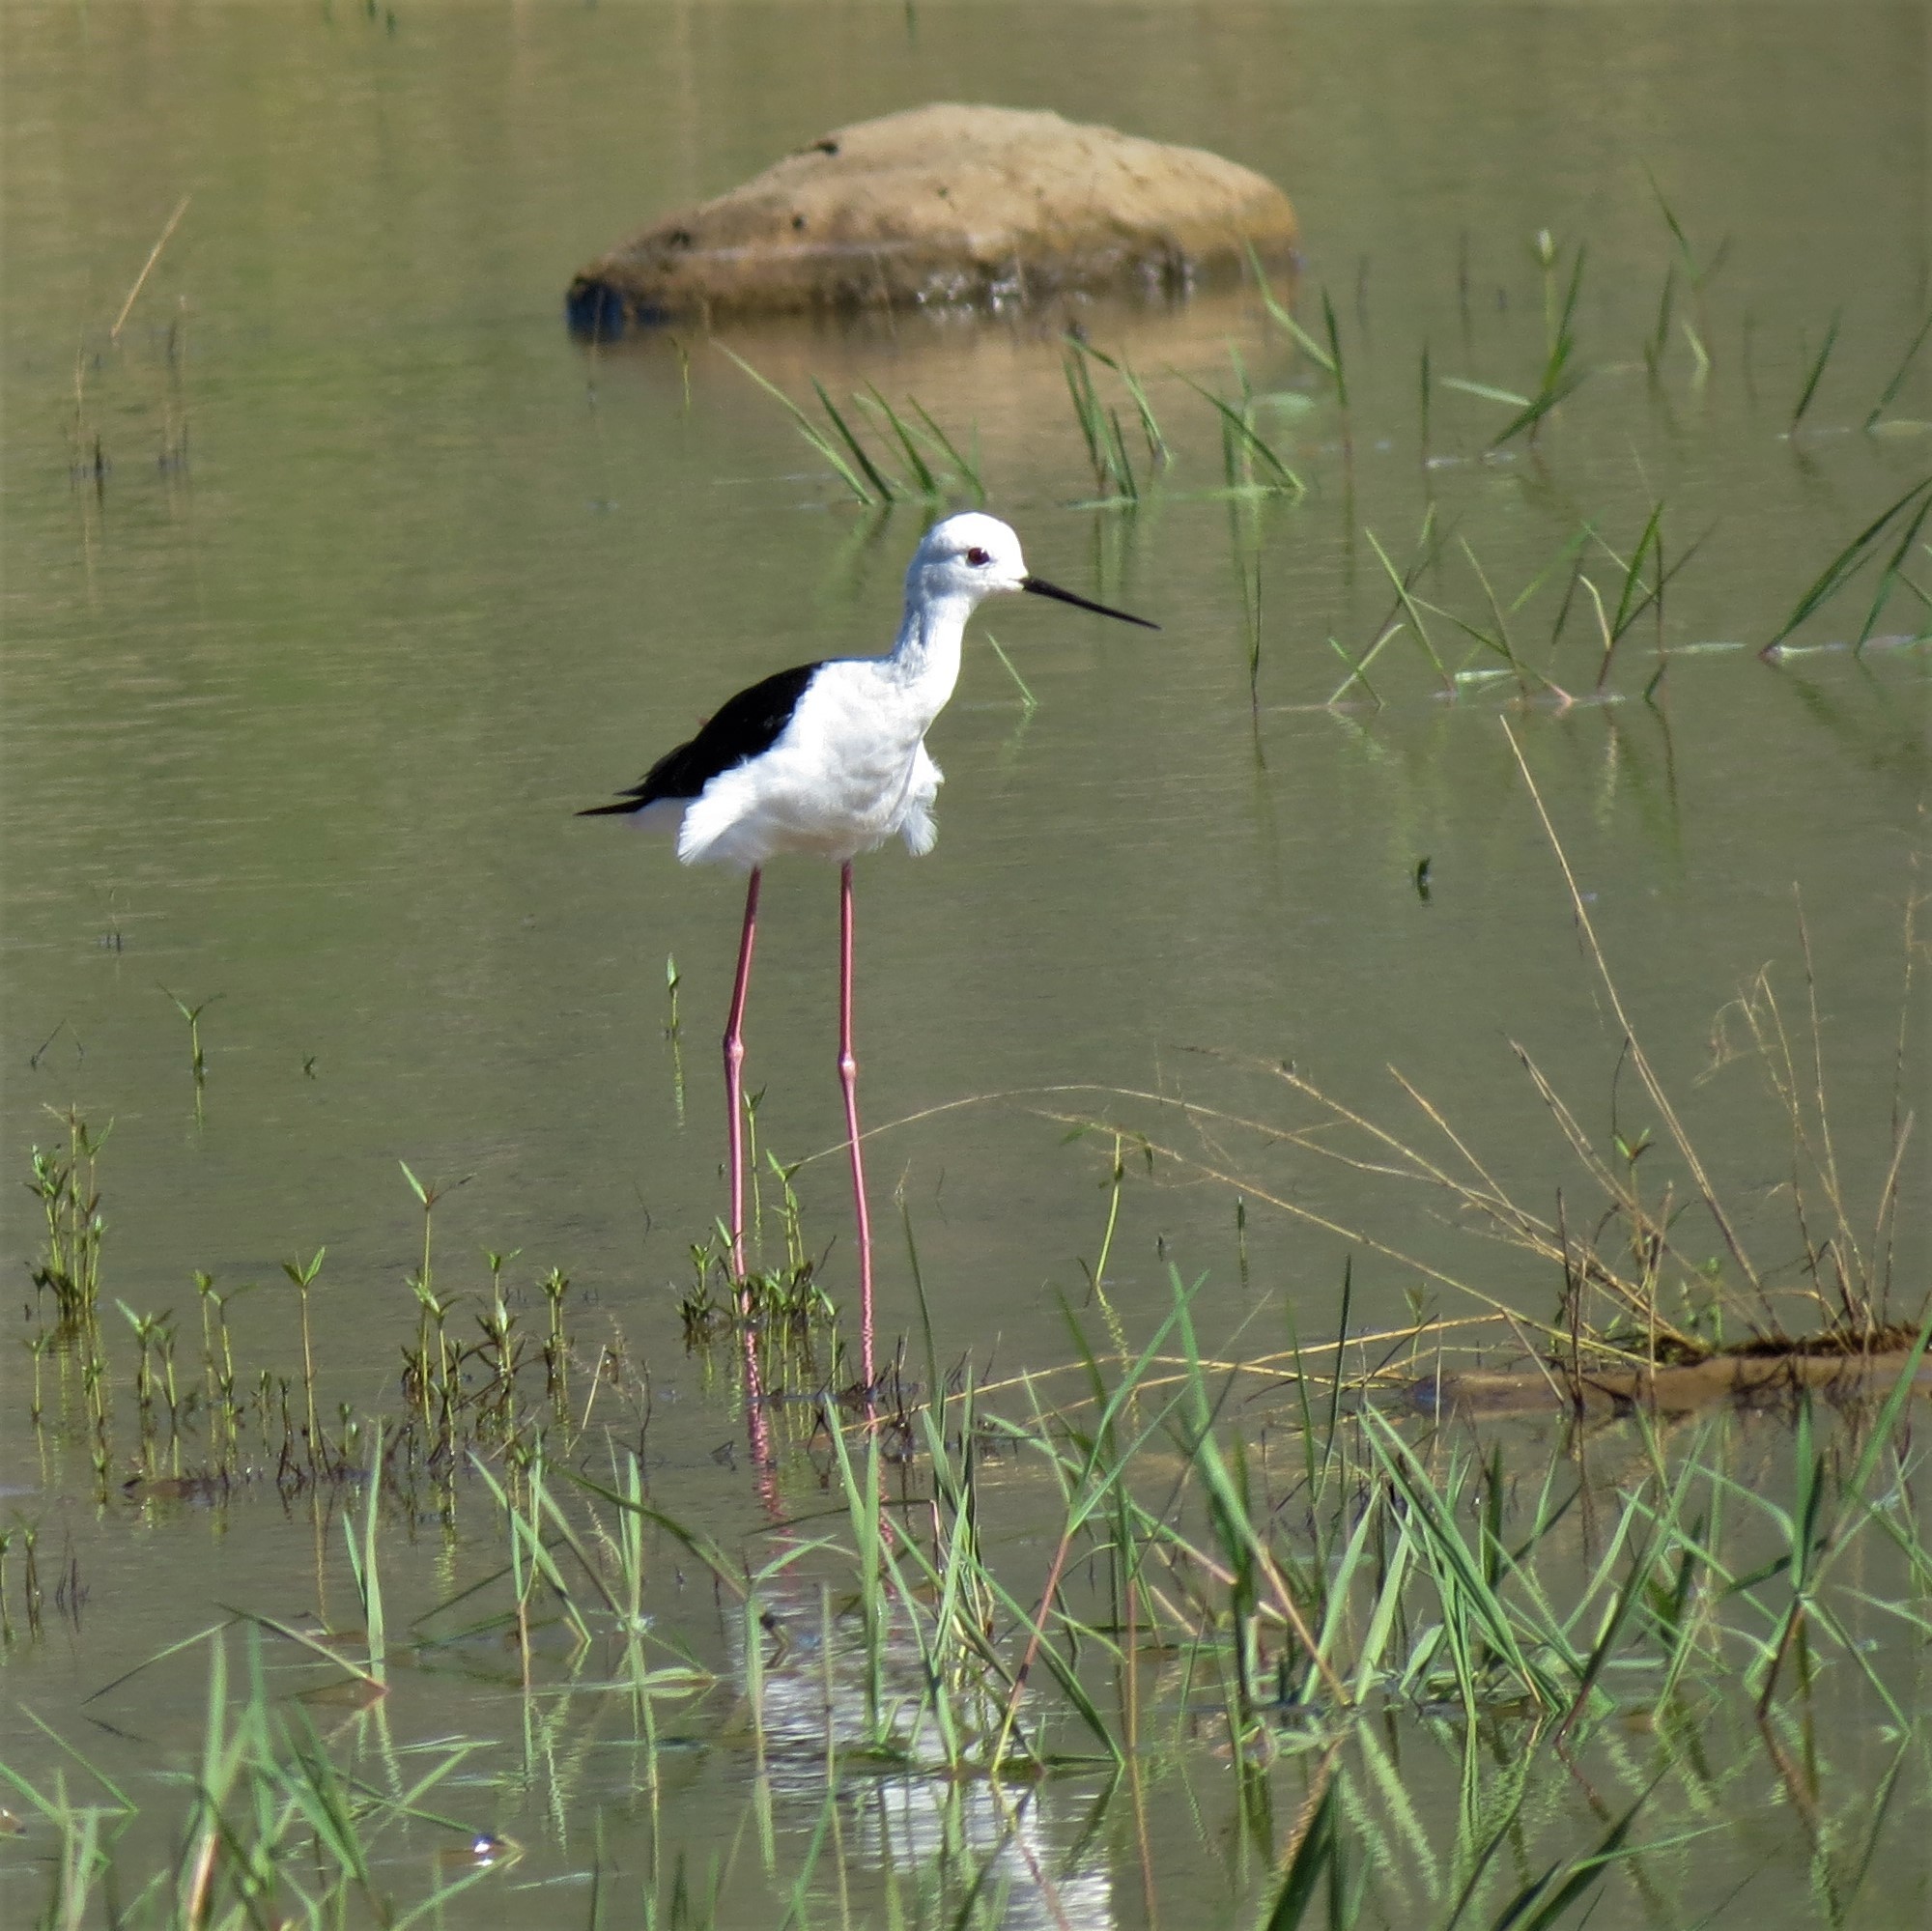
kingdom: Animalia
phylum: Chordata
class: Aves
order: Charadriiformes
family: Recurvirostridae
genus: Himantopus
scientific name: Himantopus himantopus
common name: Black-winged stilt
